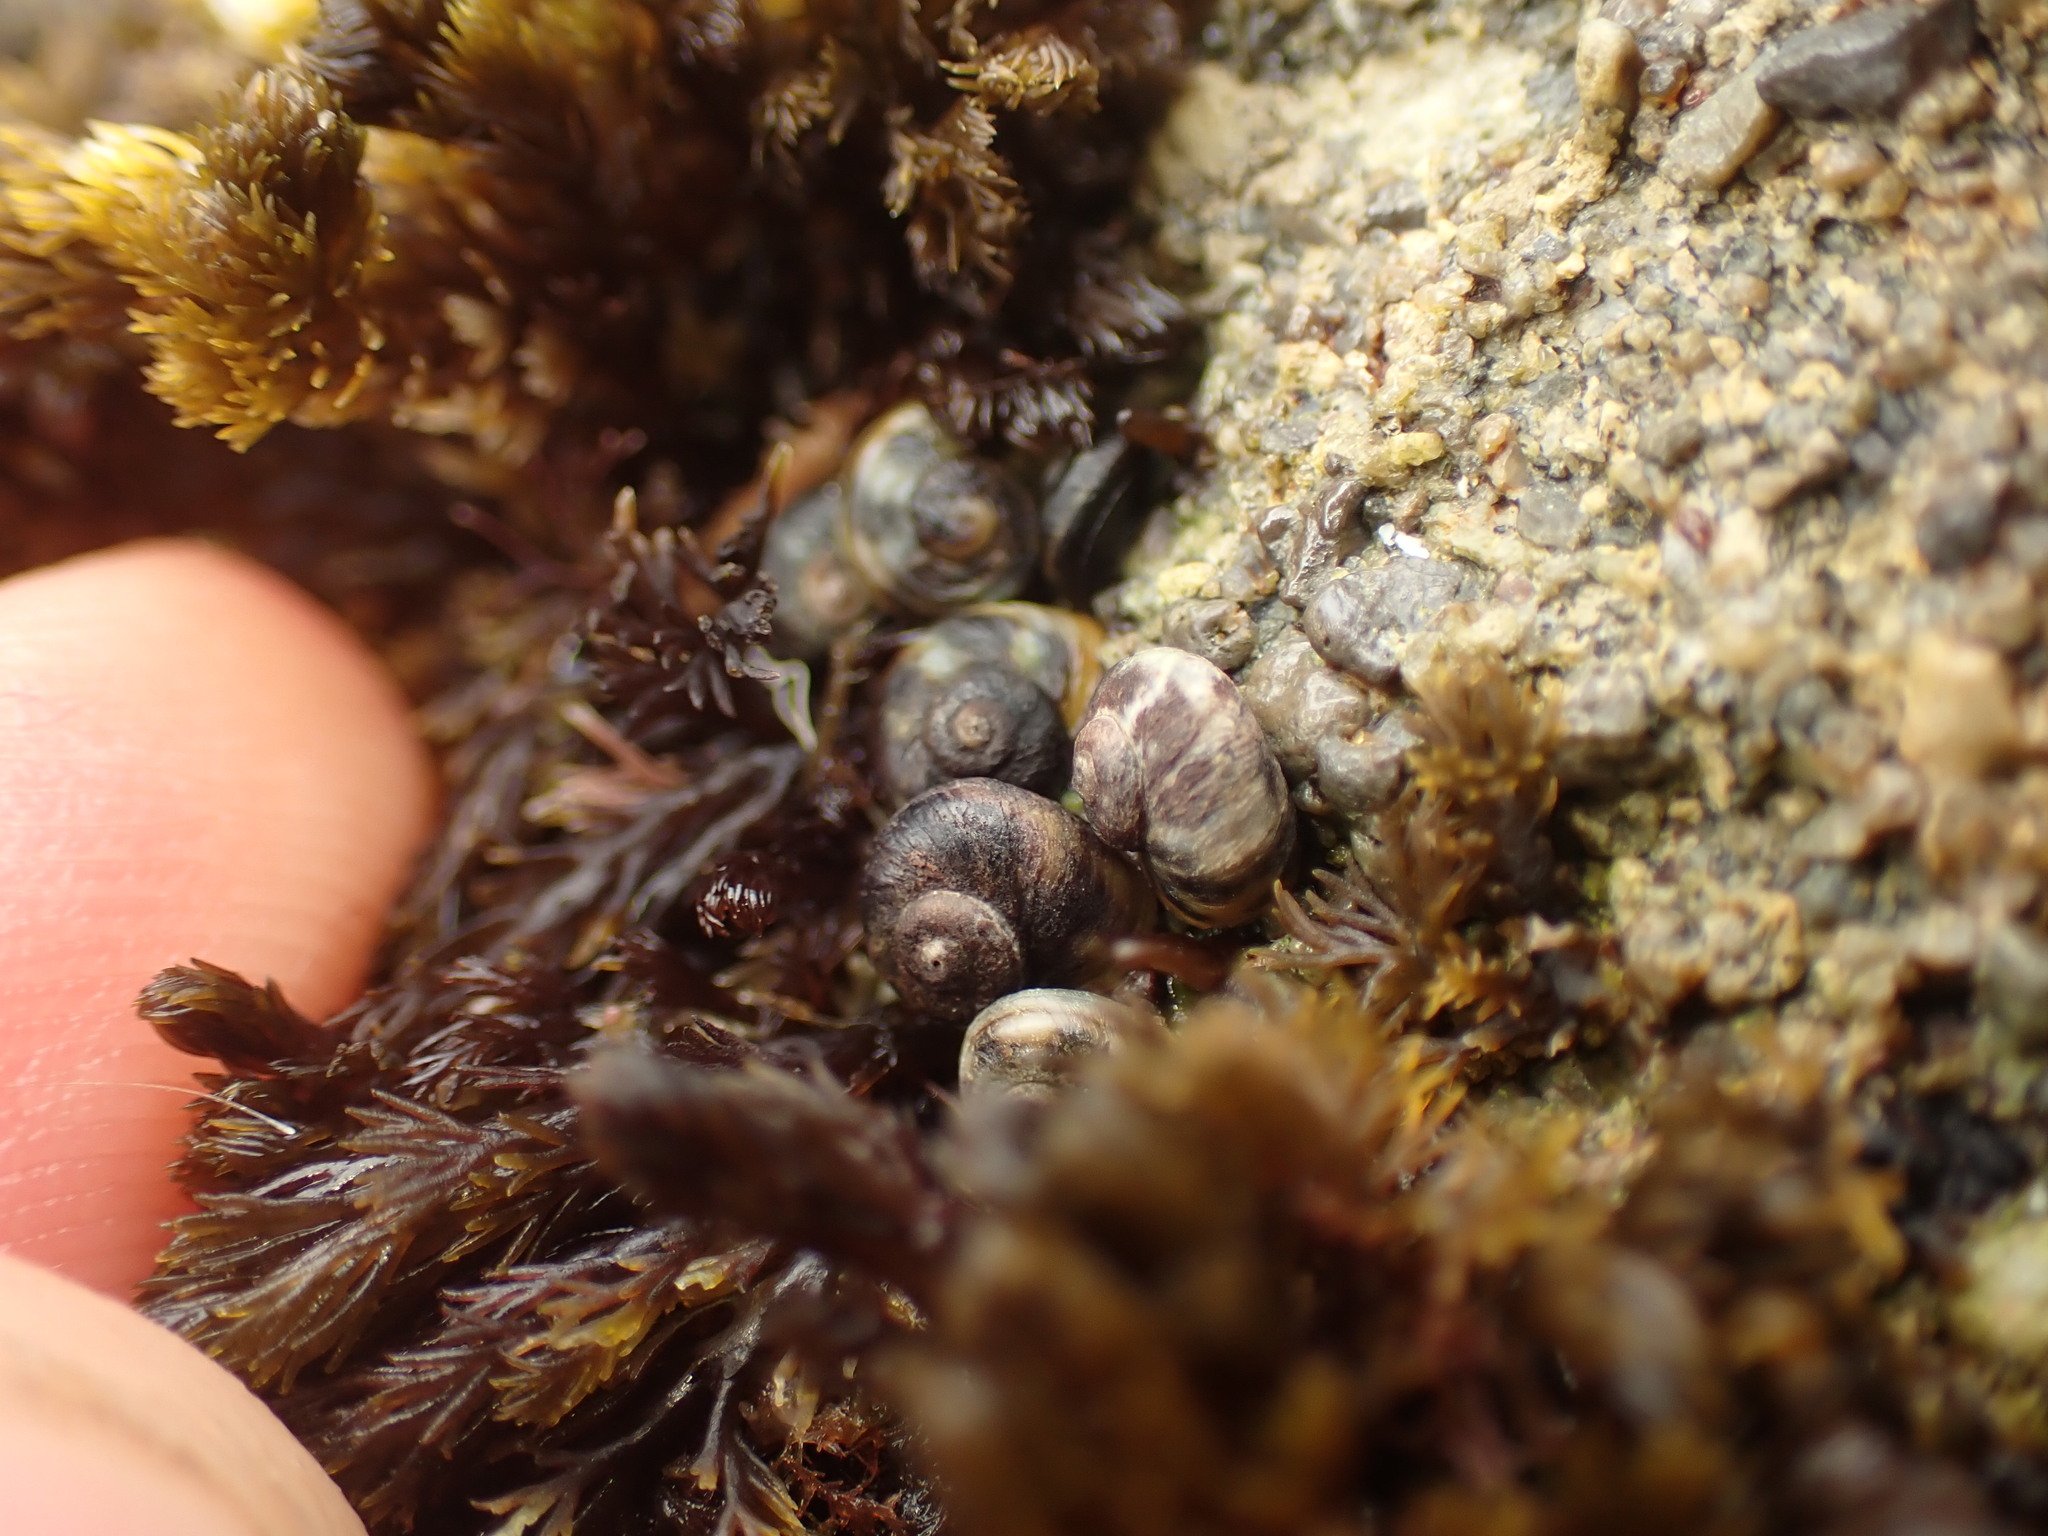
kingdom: Animalia
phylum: Mollusca
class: Gastropoda
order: Littorinimorpha
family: Littorinidae
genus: Risellopsis
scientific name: Risellopsis varia
